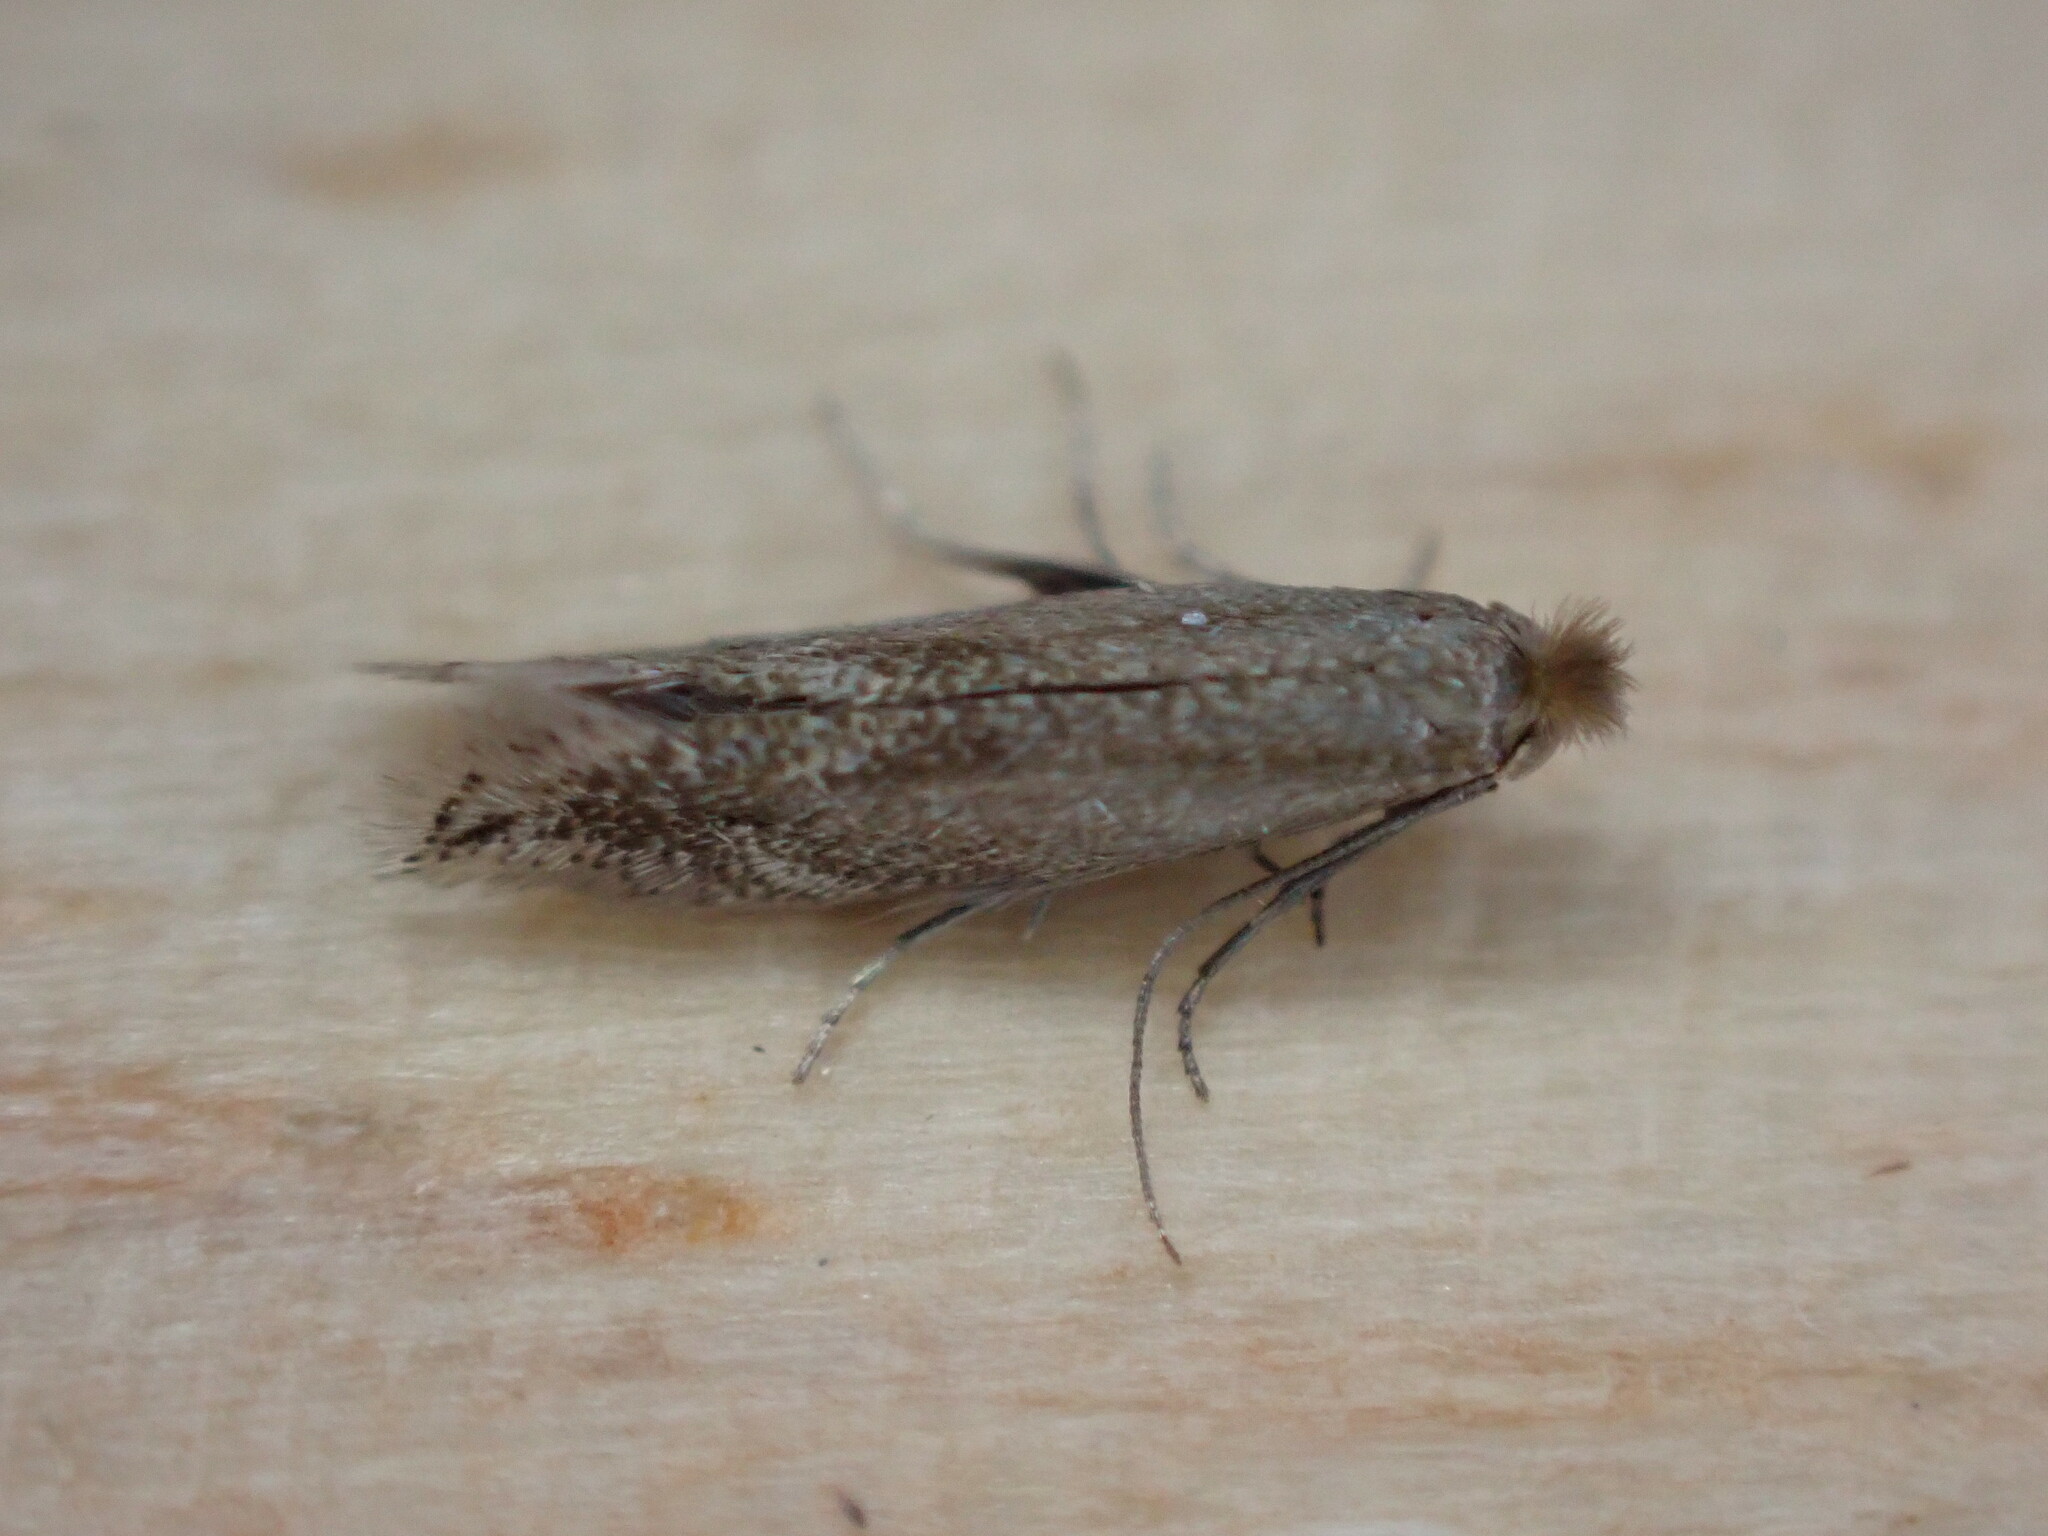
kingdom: Animalia
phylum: Arthropoda
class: Insecta
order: Lepidoptera
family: Bucculatricidae
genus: Bucculatrix
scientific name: Bucculatrix maritima
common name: Saltern bent-wing
